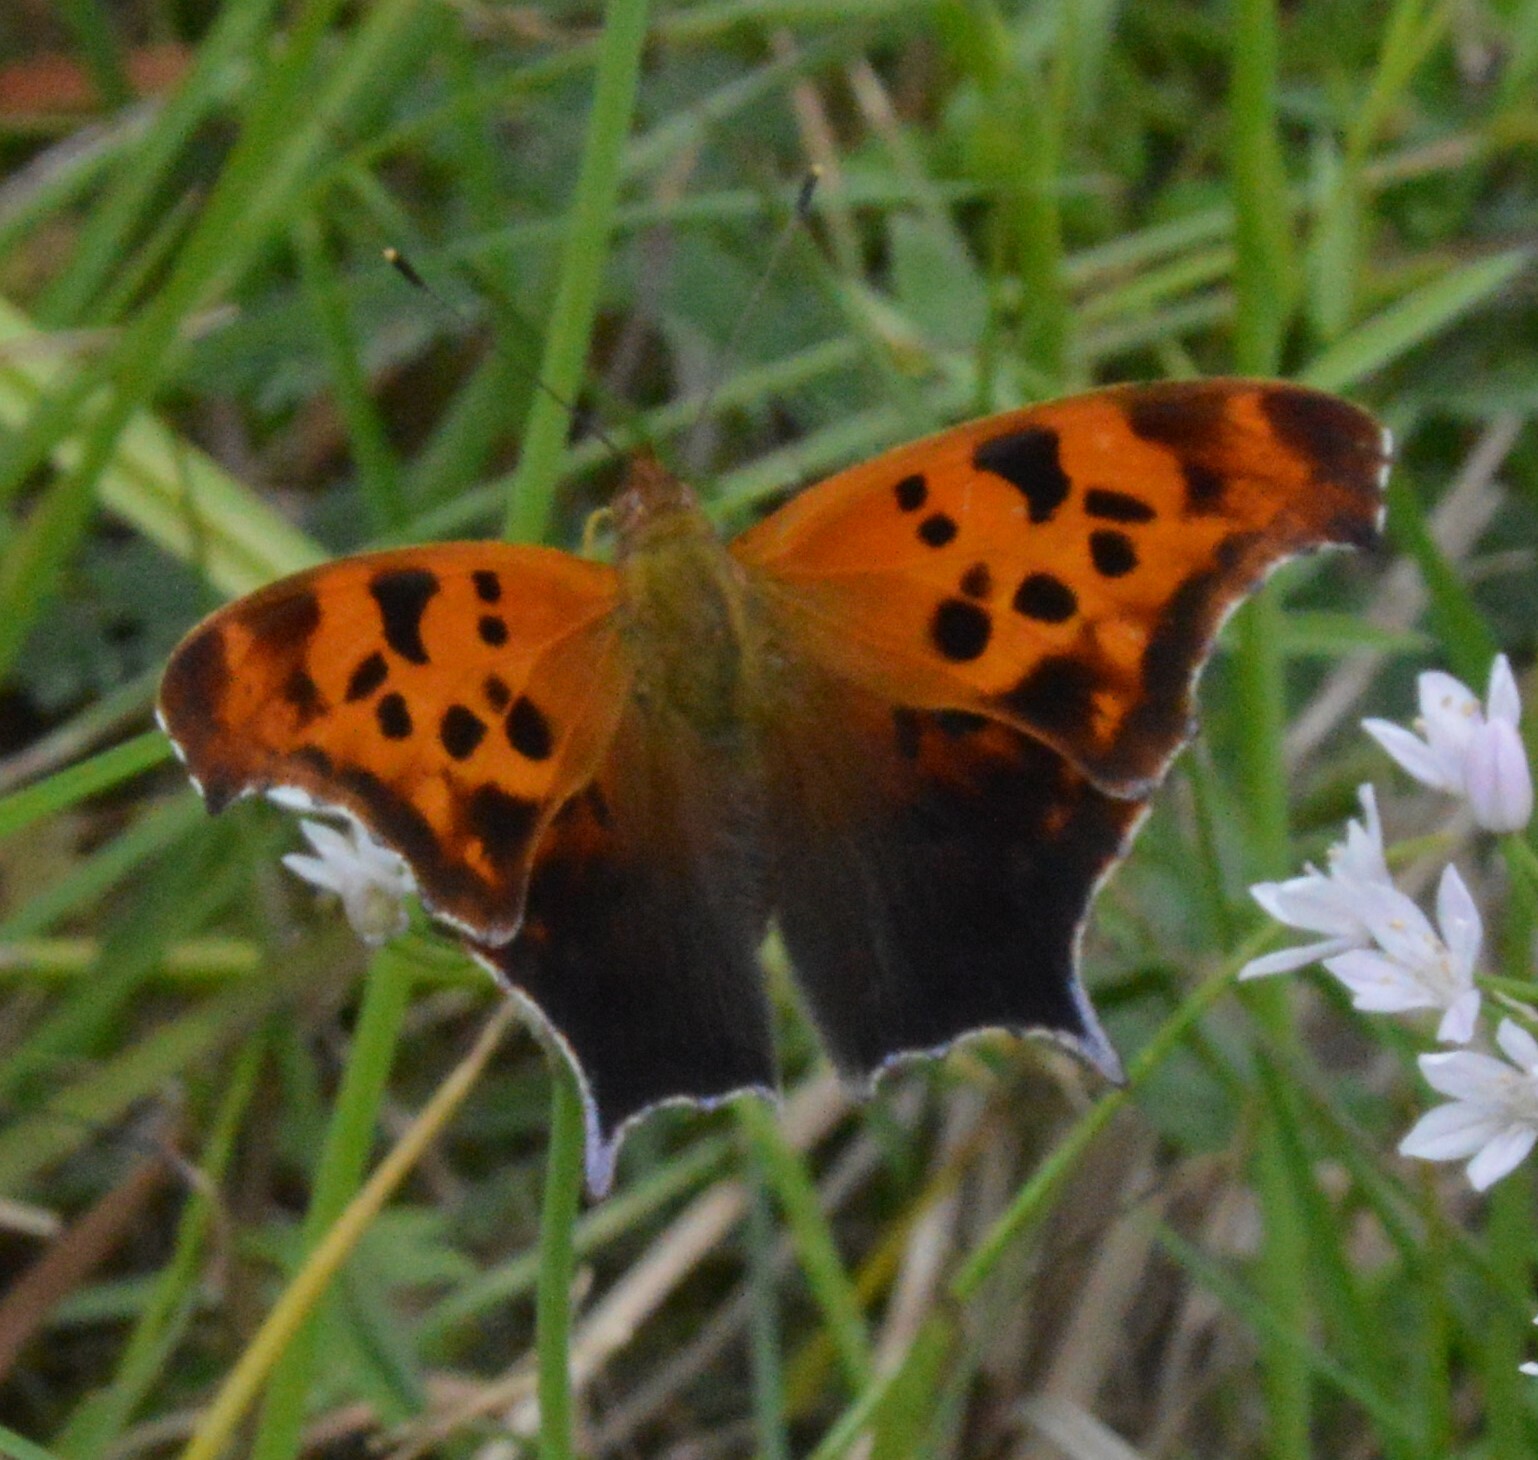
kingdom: Animalia
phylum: Arthropoda
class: Insecta
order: Lepidoptera
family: Nymphalidae
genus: Polygonia
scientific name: Polygonia interrogationis
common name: Question mark
